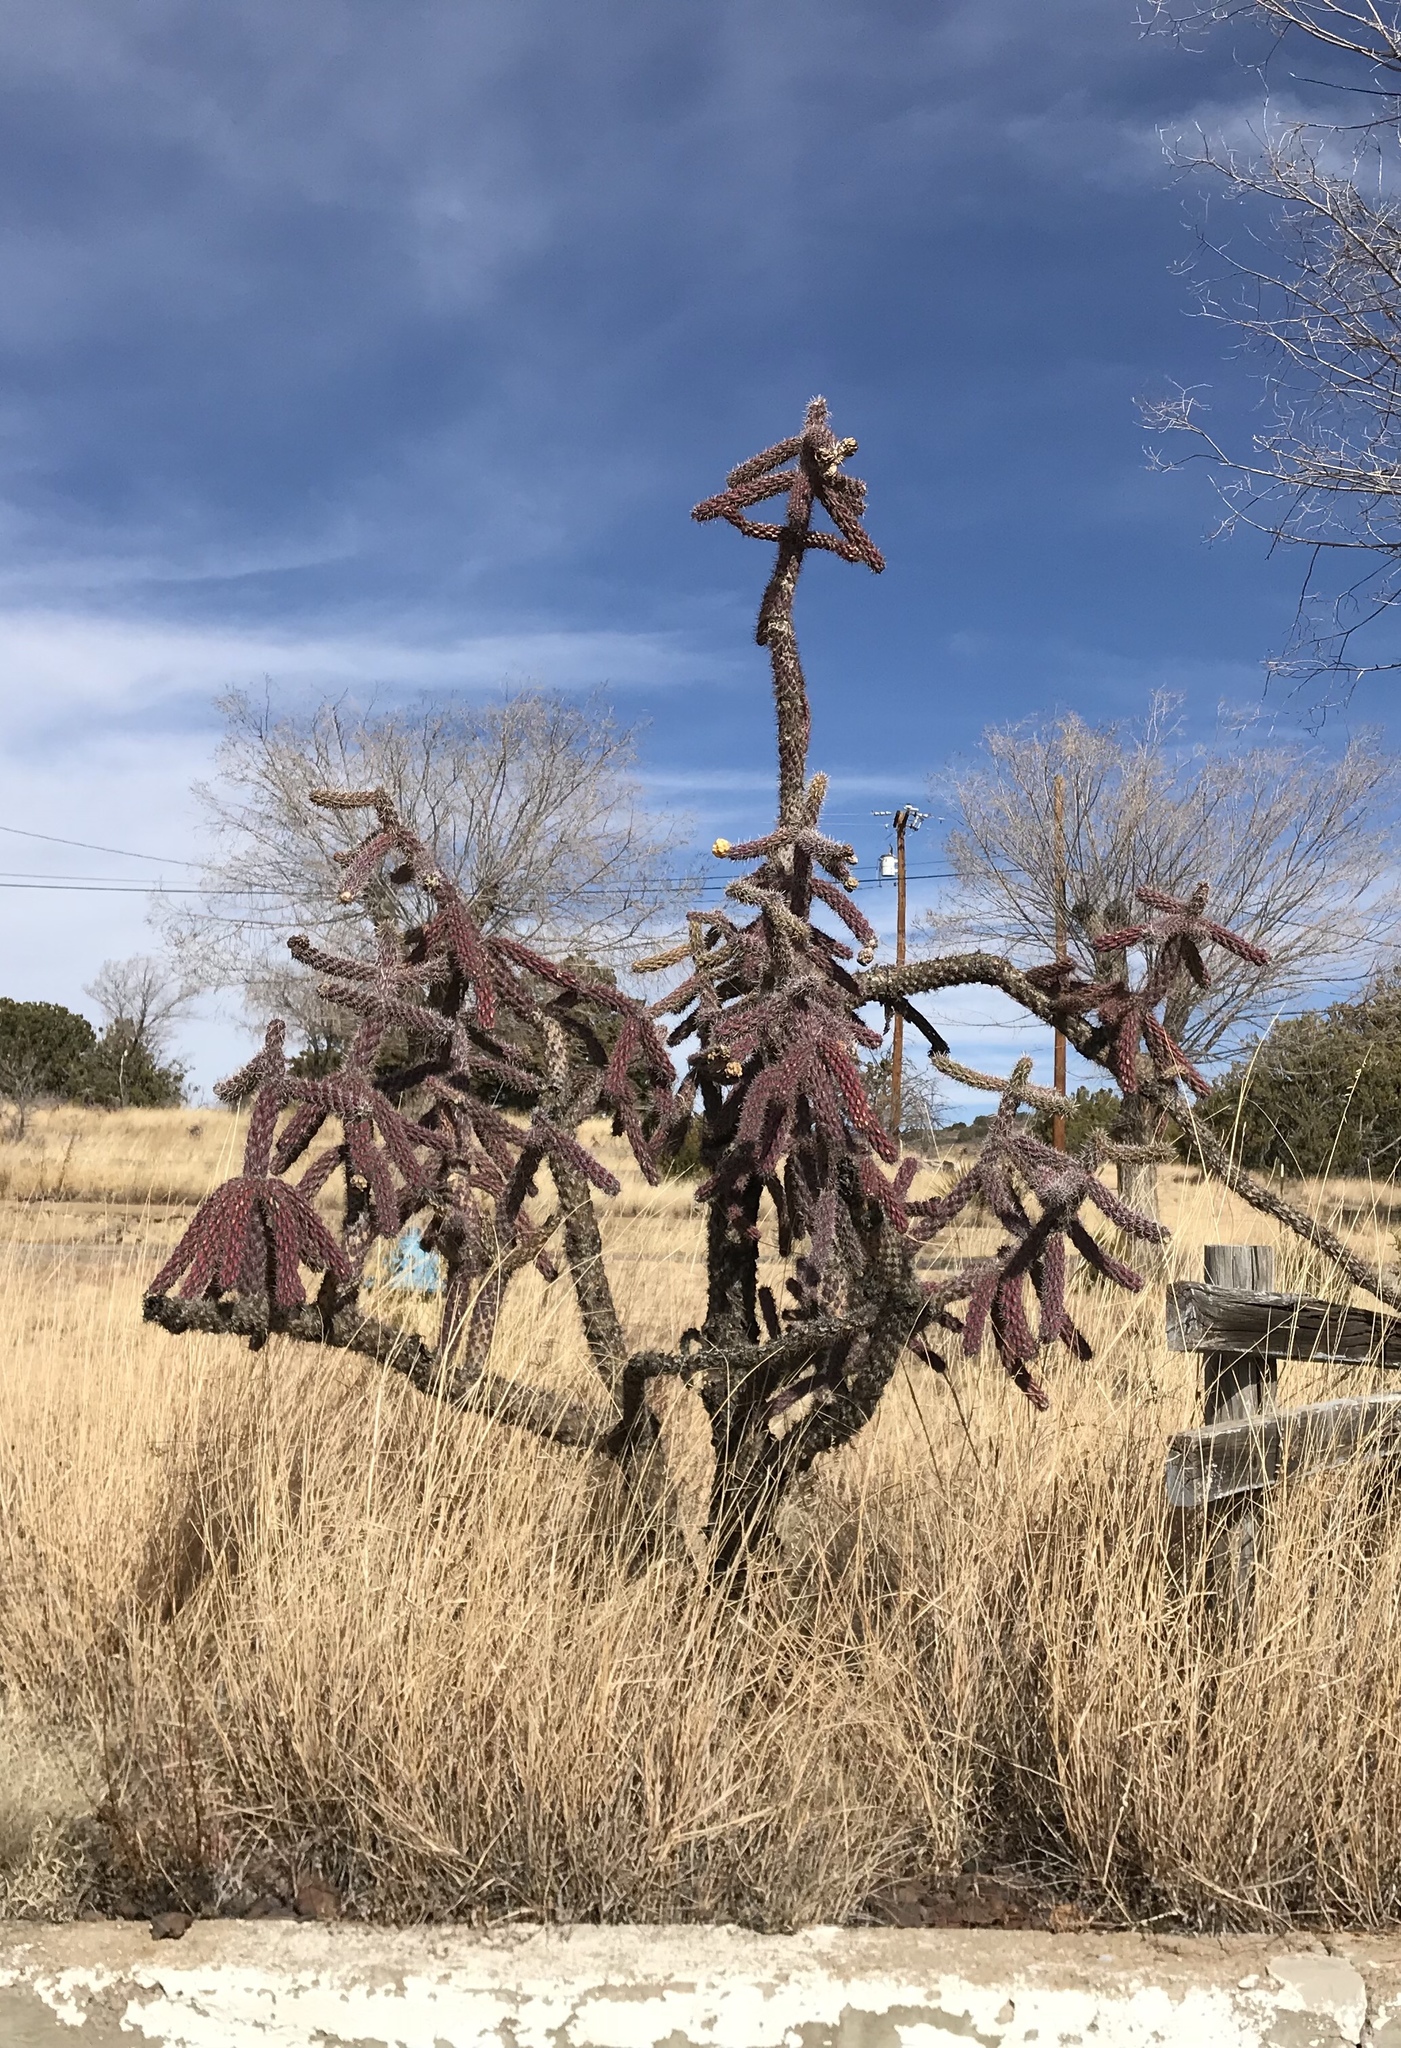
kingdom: Plantae
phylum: Tracheophyta
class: Magnoliopsida
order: Caryophyllales
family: Cactaceae
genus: Cylindropuntia
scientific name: Cylindropuntia imbricata
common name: Candelabrum cactus
